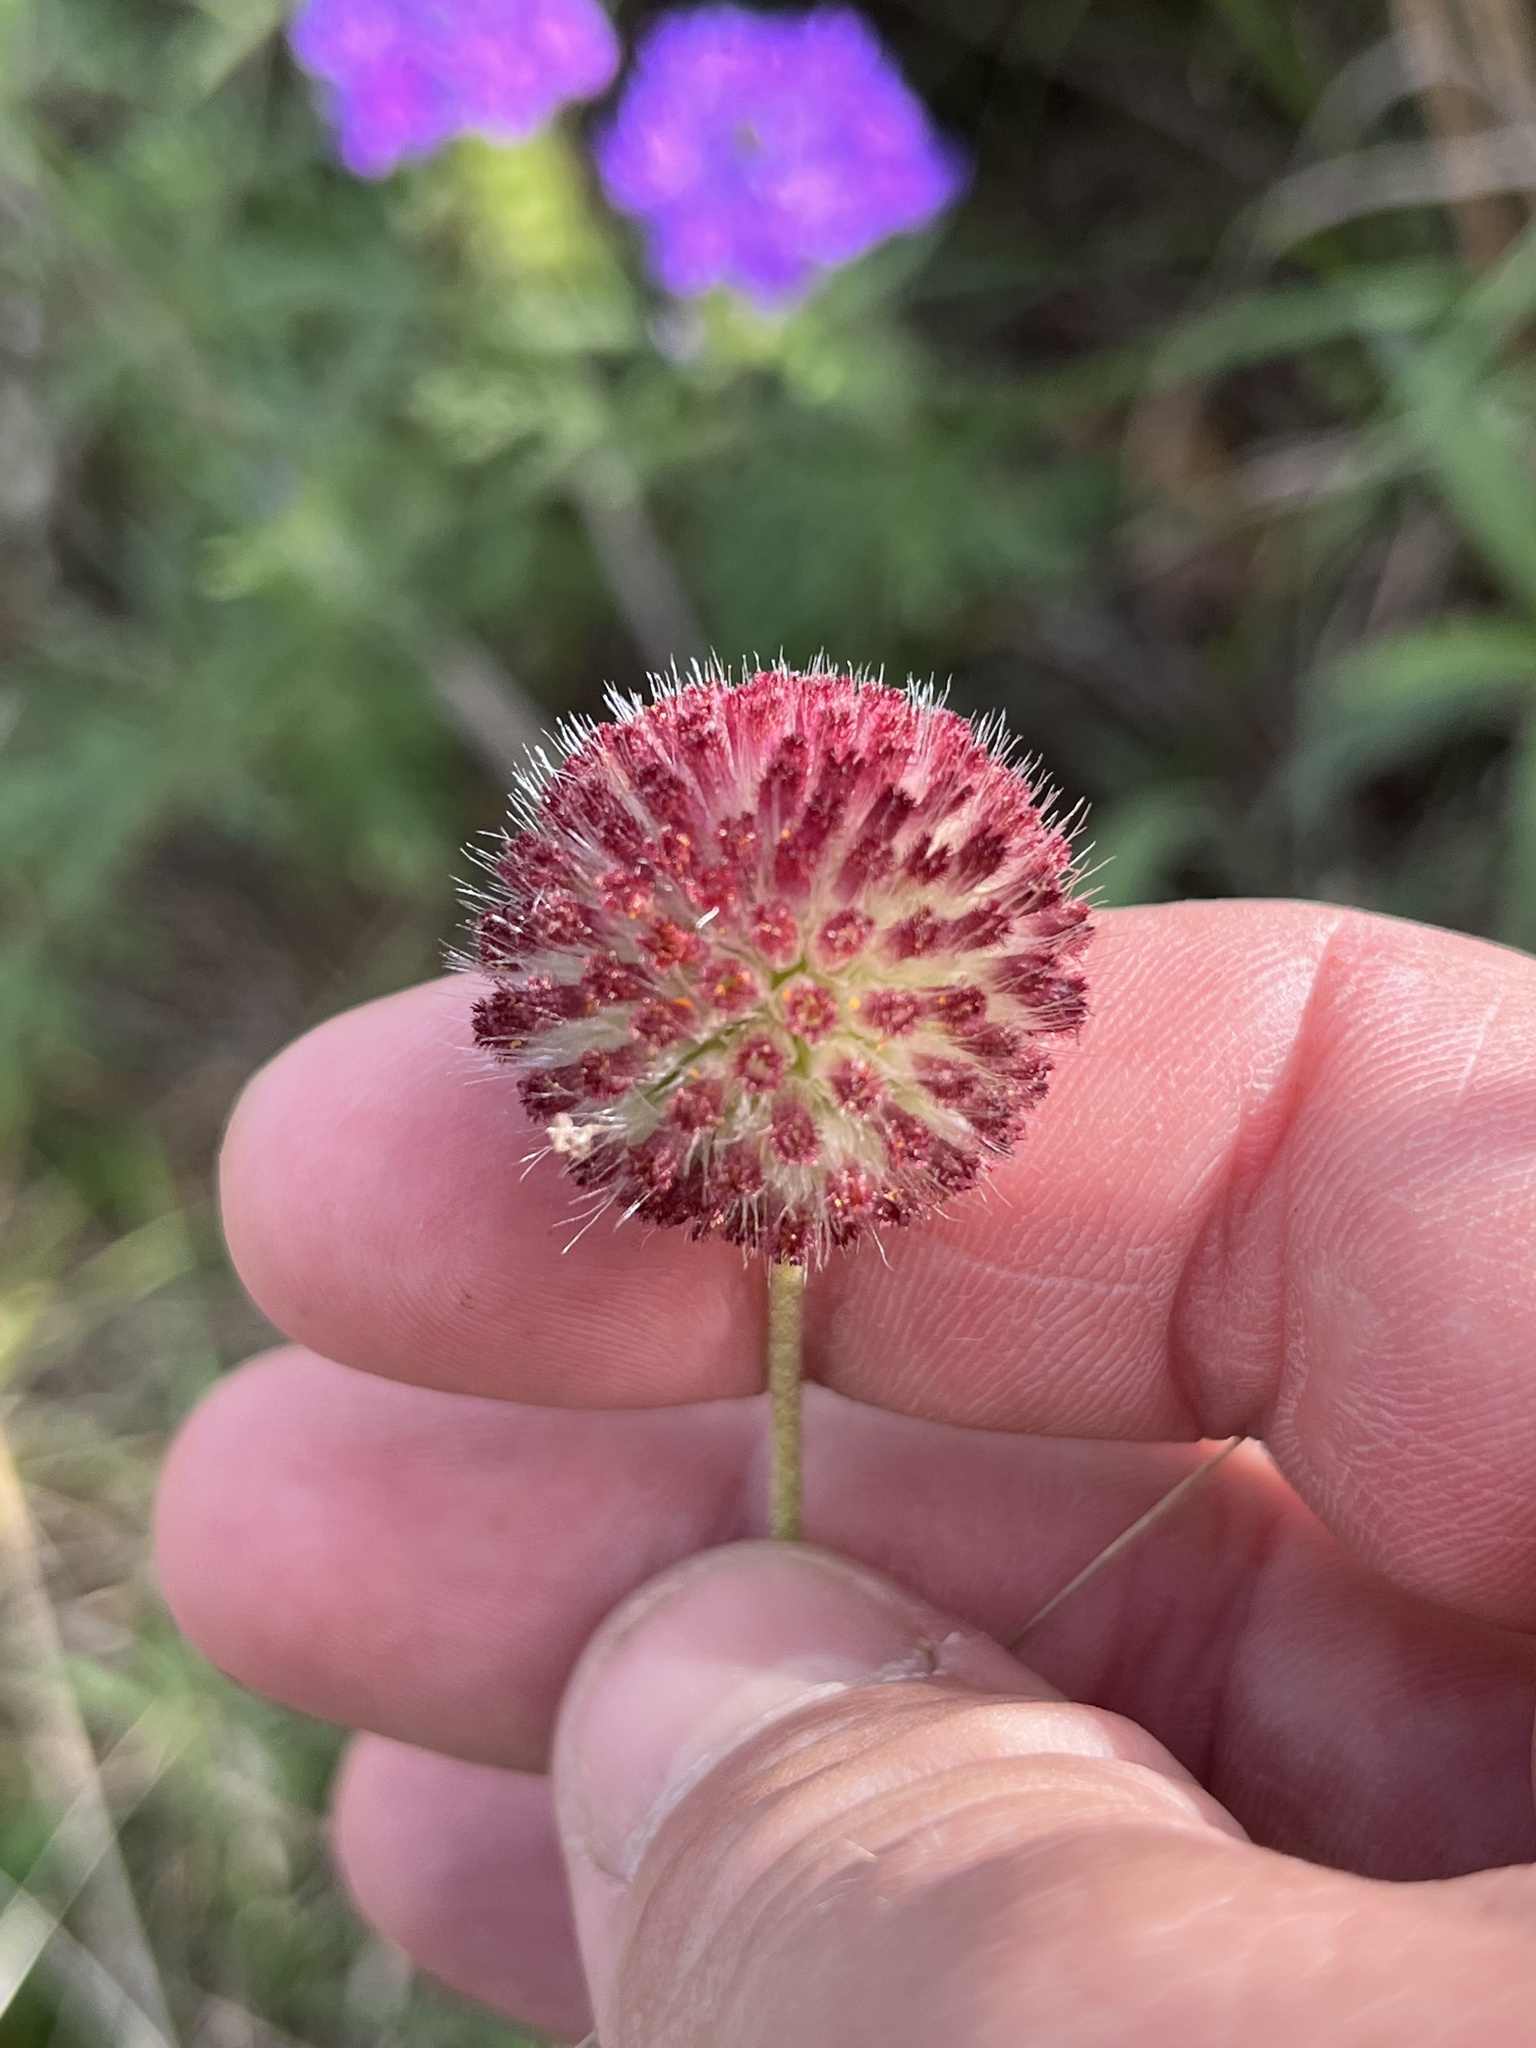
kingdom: Plantae
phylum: Tracheophyta
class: Magnoliopsida
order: Asterales
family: Asteraceae
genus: Gaillardia
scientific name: Gaillardia suavis
